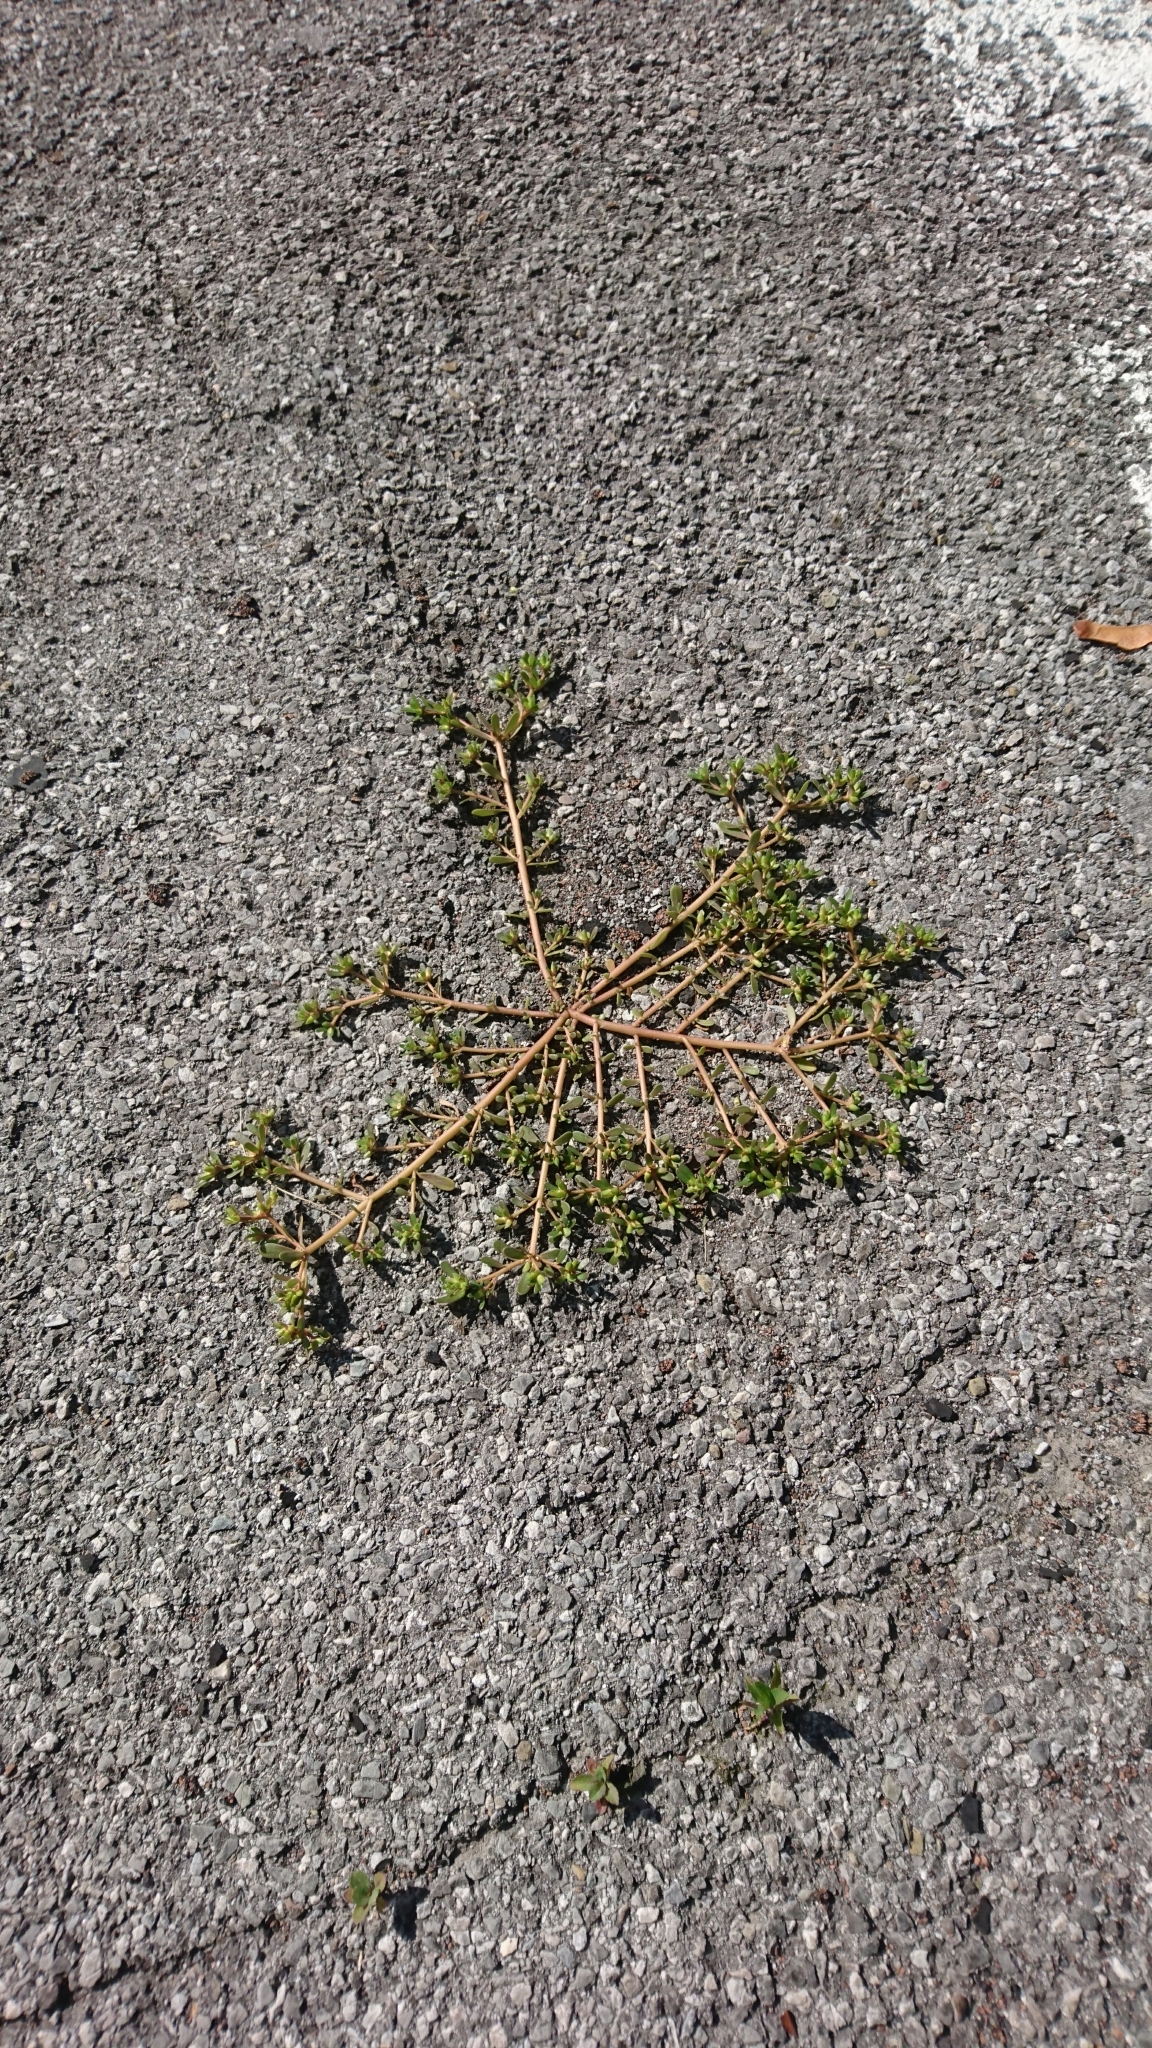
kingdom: Plantae
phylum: Tracheophyta
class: Magnoliopsida
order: Caryophyllales
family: Portulacaceae
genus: Portulaca
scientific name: Portulaca oleracea
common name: Common purslane
